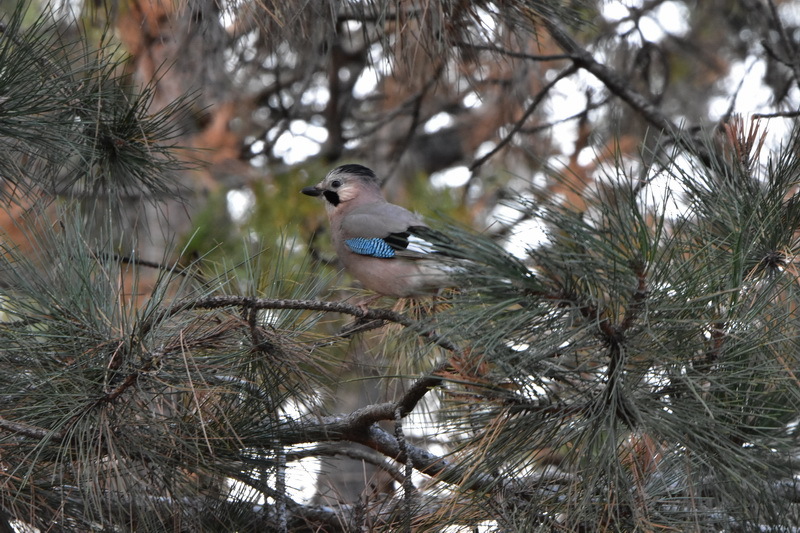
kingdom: Animalia
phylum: Chordata
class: Aves
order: Passeriformes
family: Corvidae
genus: Garrulus
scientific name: Garrulus glandarius
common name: Eurasian jay
